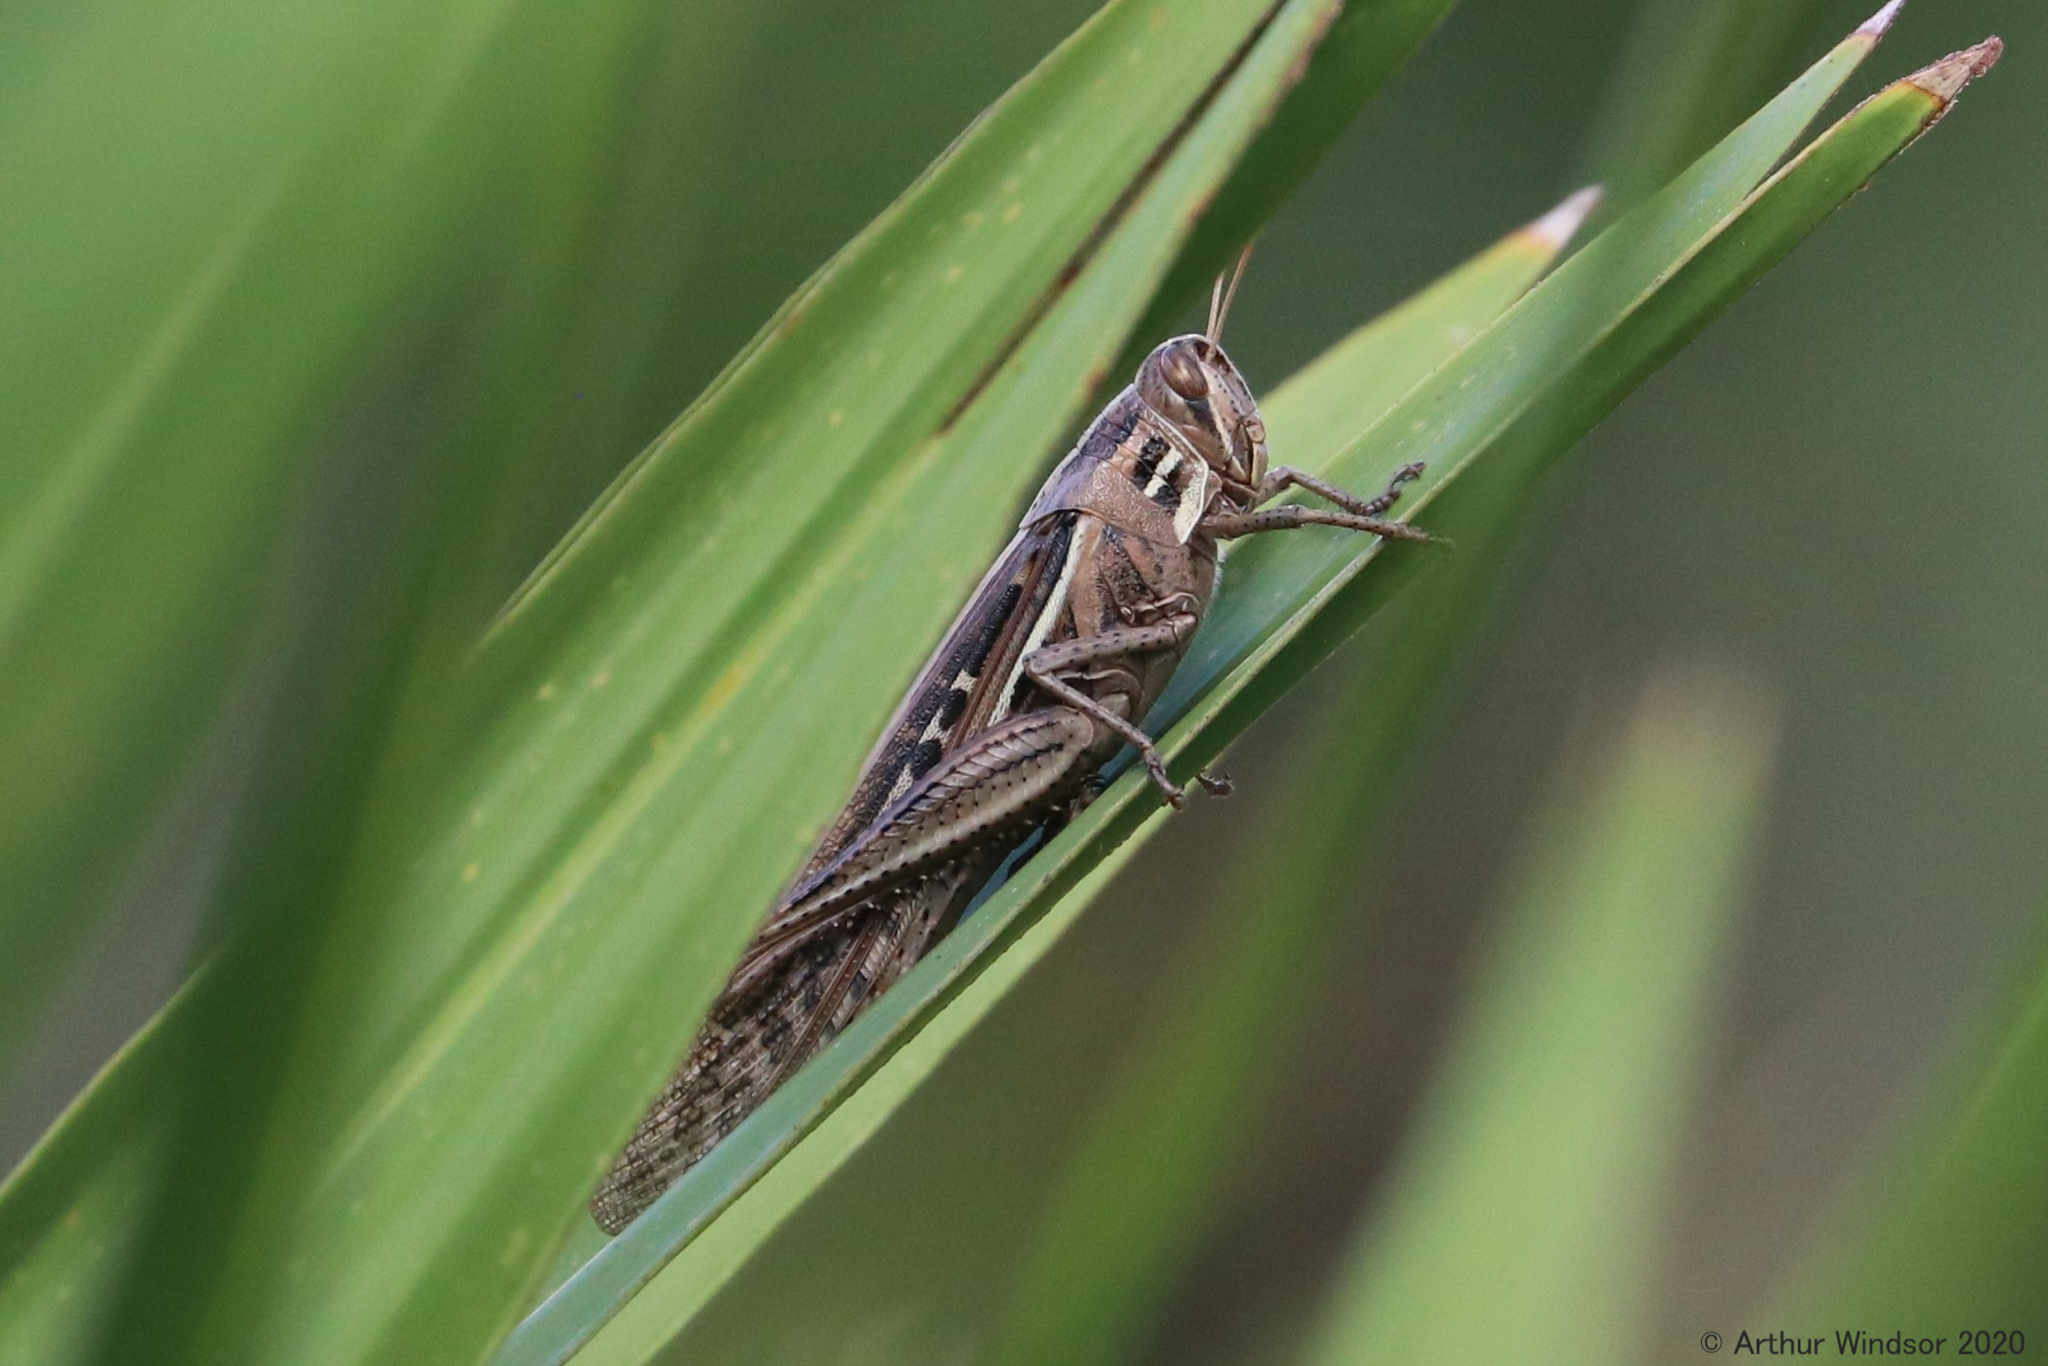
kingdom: Animalia
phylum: Arthropoda
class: Insecta
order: Orthoptera
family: Acrididae
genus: Schistocerca
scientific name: Schistocerca americana
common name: American bird locust
